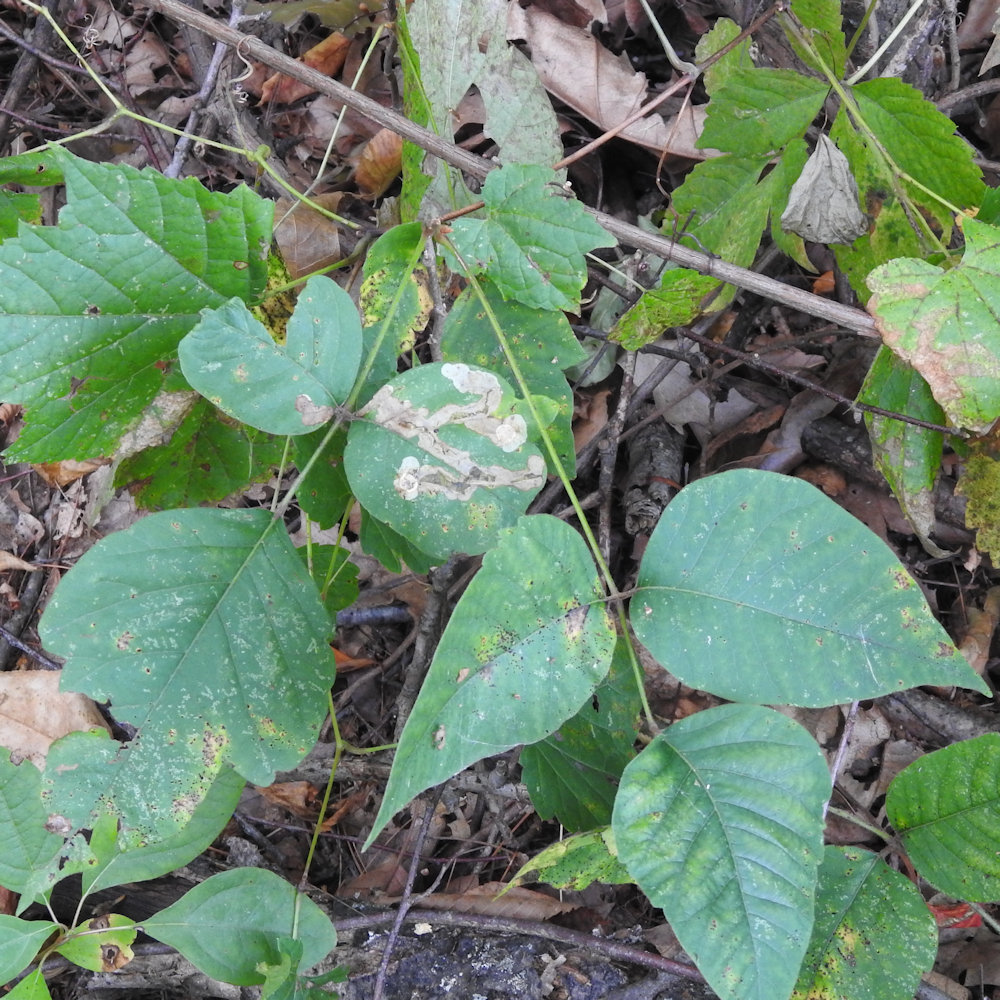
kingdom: Animalia
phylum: Arthropoda
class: Insecta
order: Lepidoptera
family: Gracillariidae
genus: Cameraria
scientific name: Cameraria guttifinitella
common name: Poison ivy leaf-miner moth
